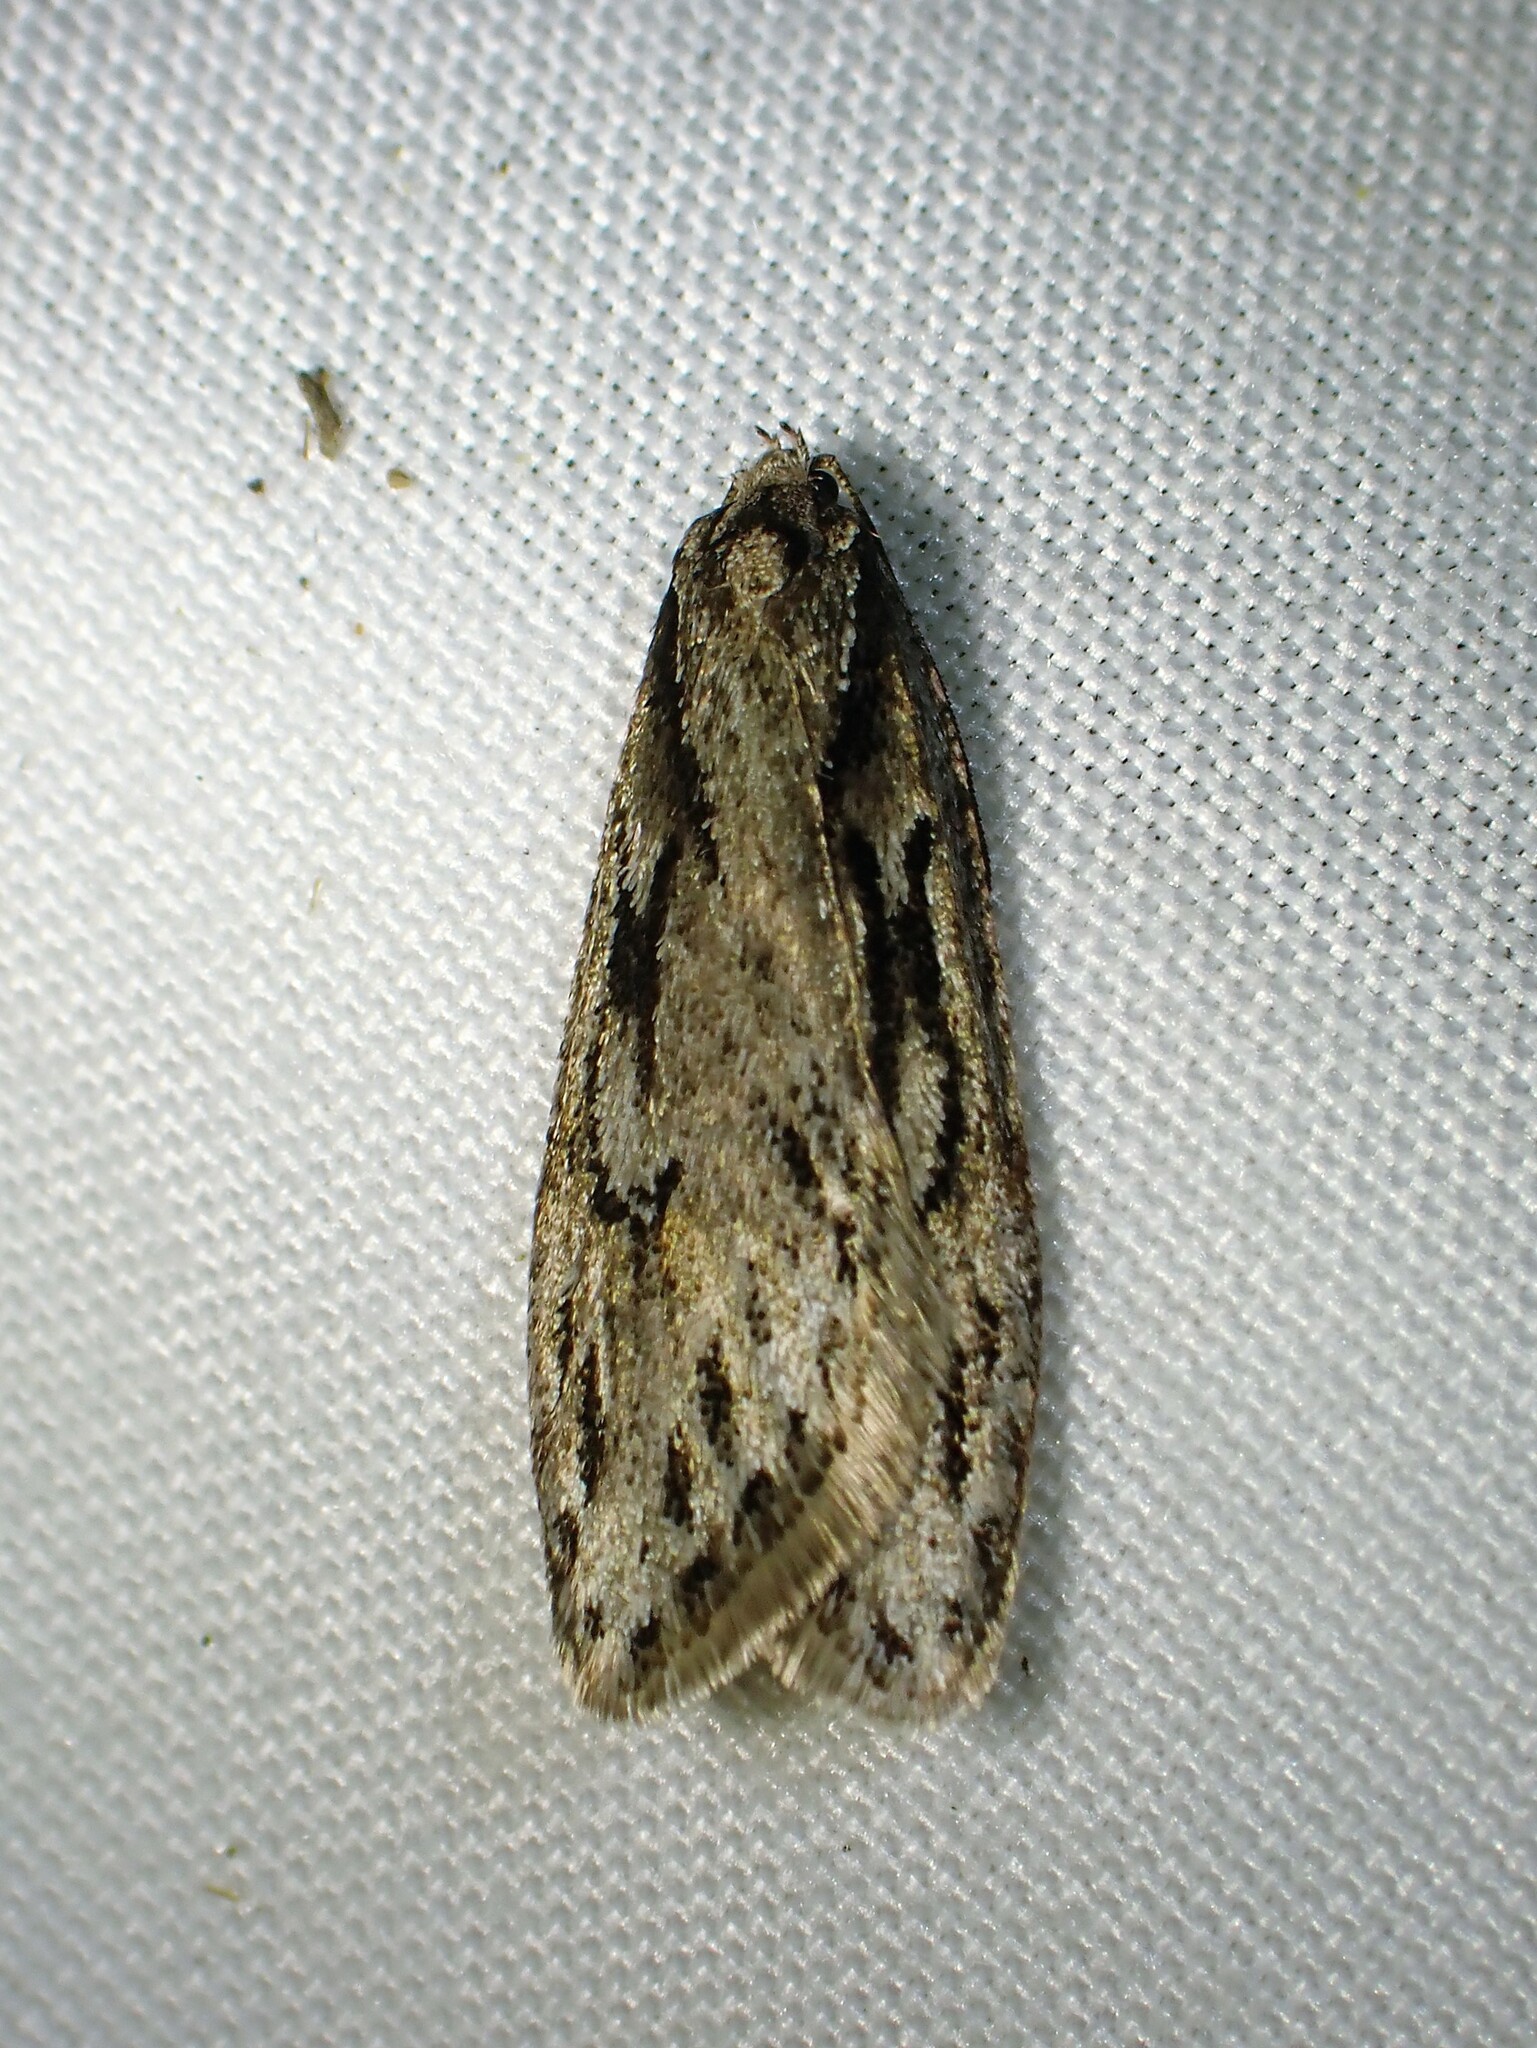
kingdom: Animalia
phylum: Arthropoda
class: Insecta
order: Lepidoptera
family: Depressariidae
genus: Semioscopis
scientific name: Semioscopis aurorella
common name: Aurora flatbody moth
